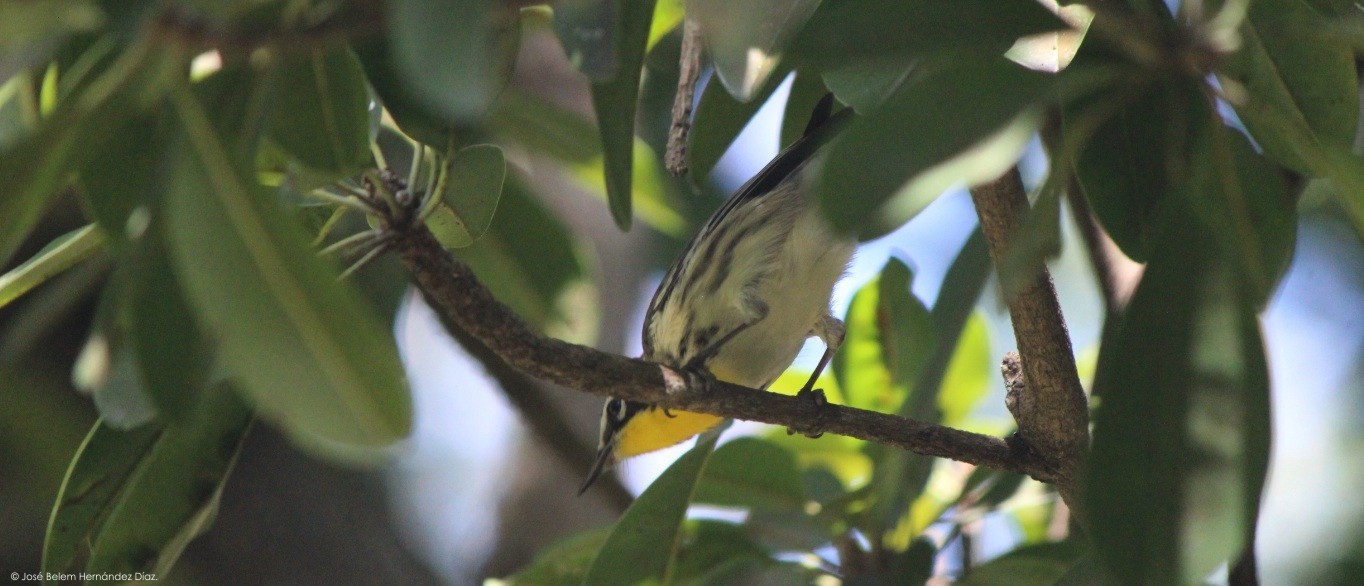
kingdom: Animalia
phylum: Chordata
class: Aves
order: Passeriformes
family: Parulidae
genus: Setophaga
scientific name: Setophaga dominica
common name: Yellow-throated warbler
